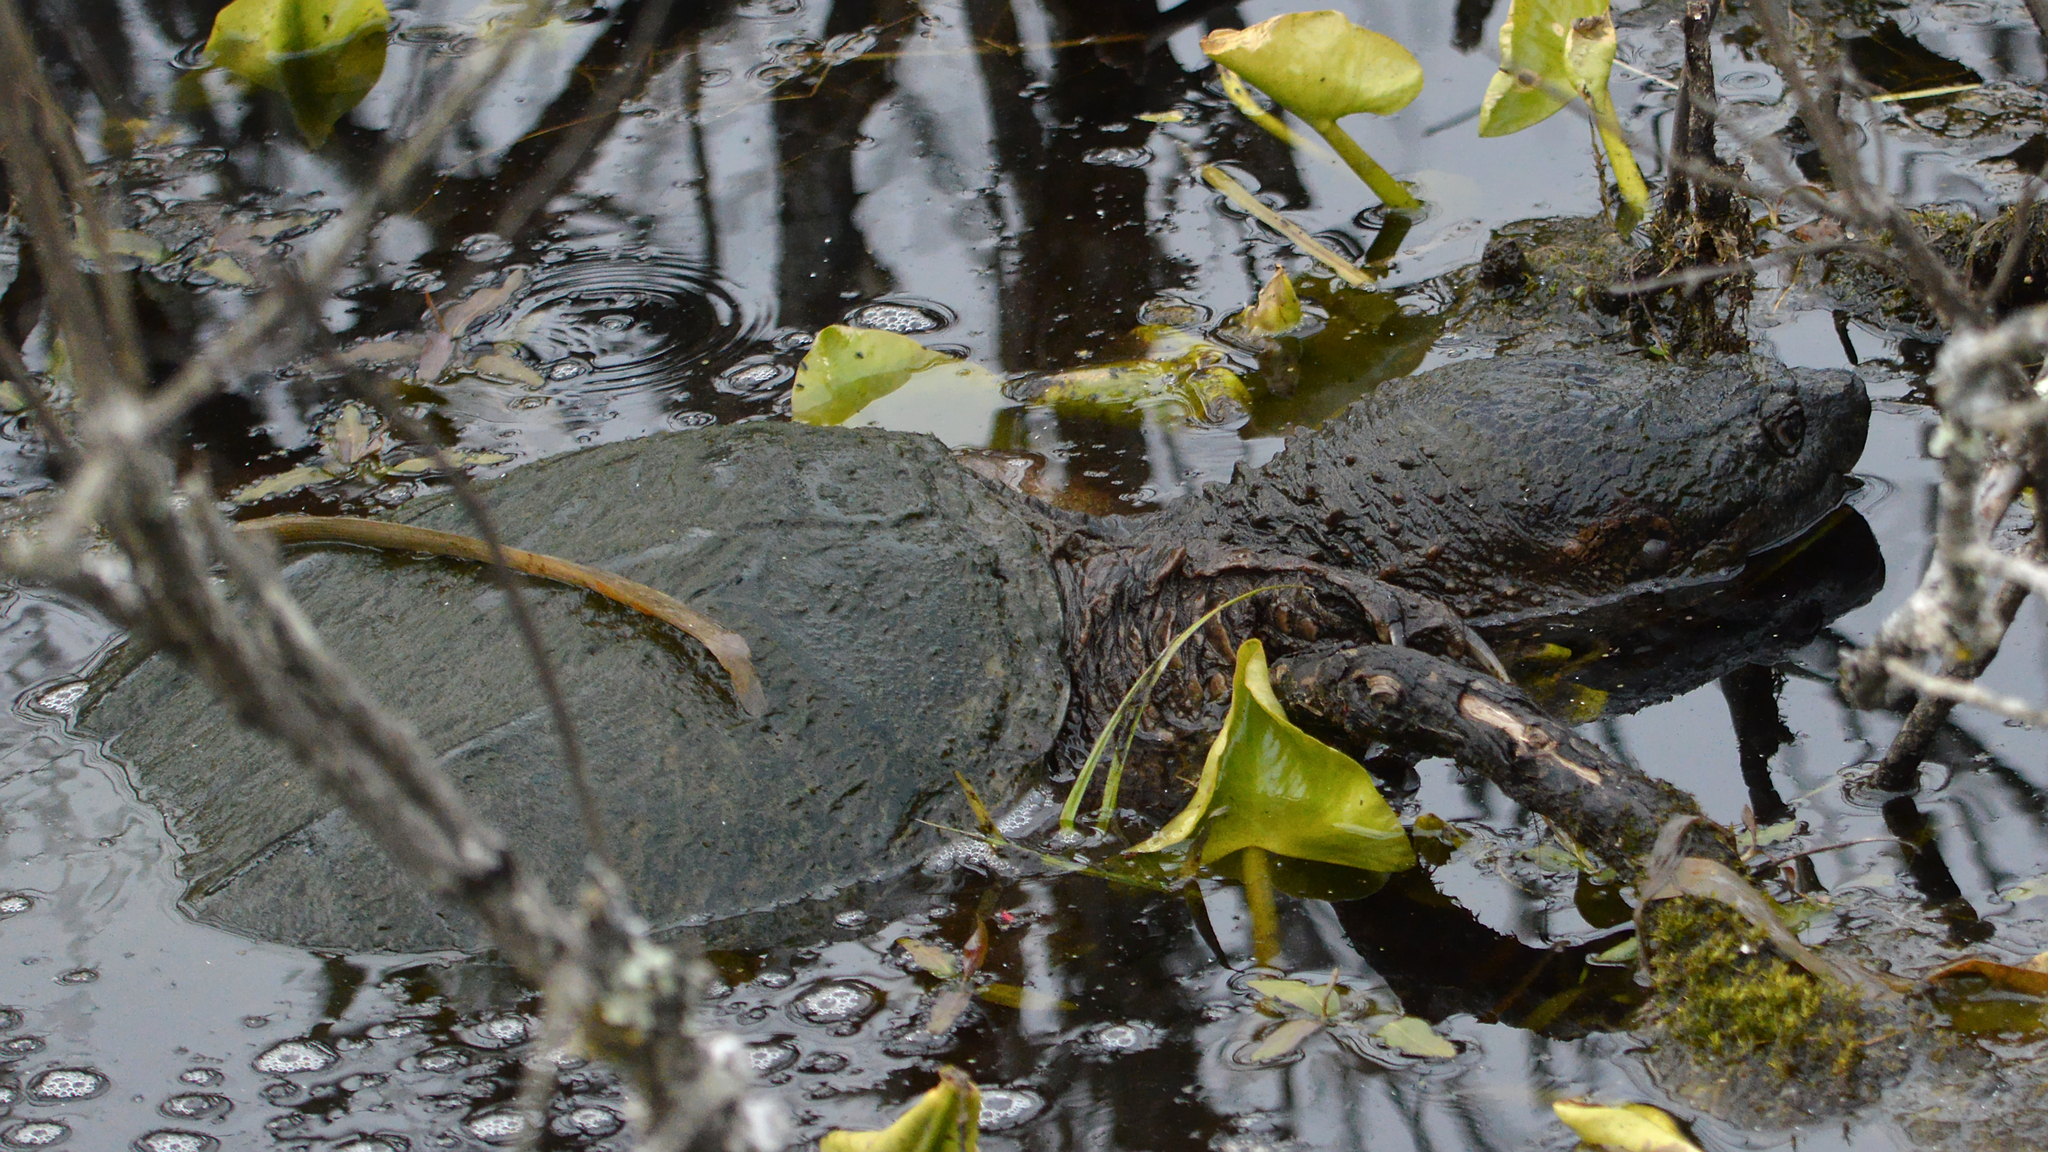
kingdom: Animalia
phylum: Chordata
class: Testudines
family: Chelydridae
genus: Chelydra
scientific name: Chelydra serpentina
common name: Common snapping turtle
